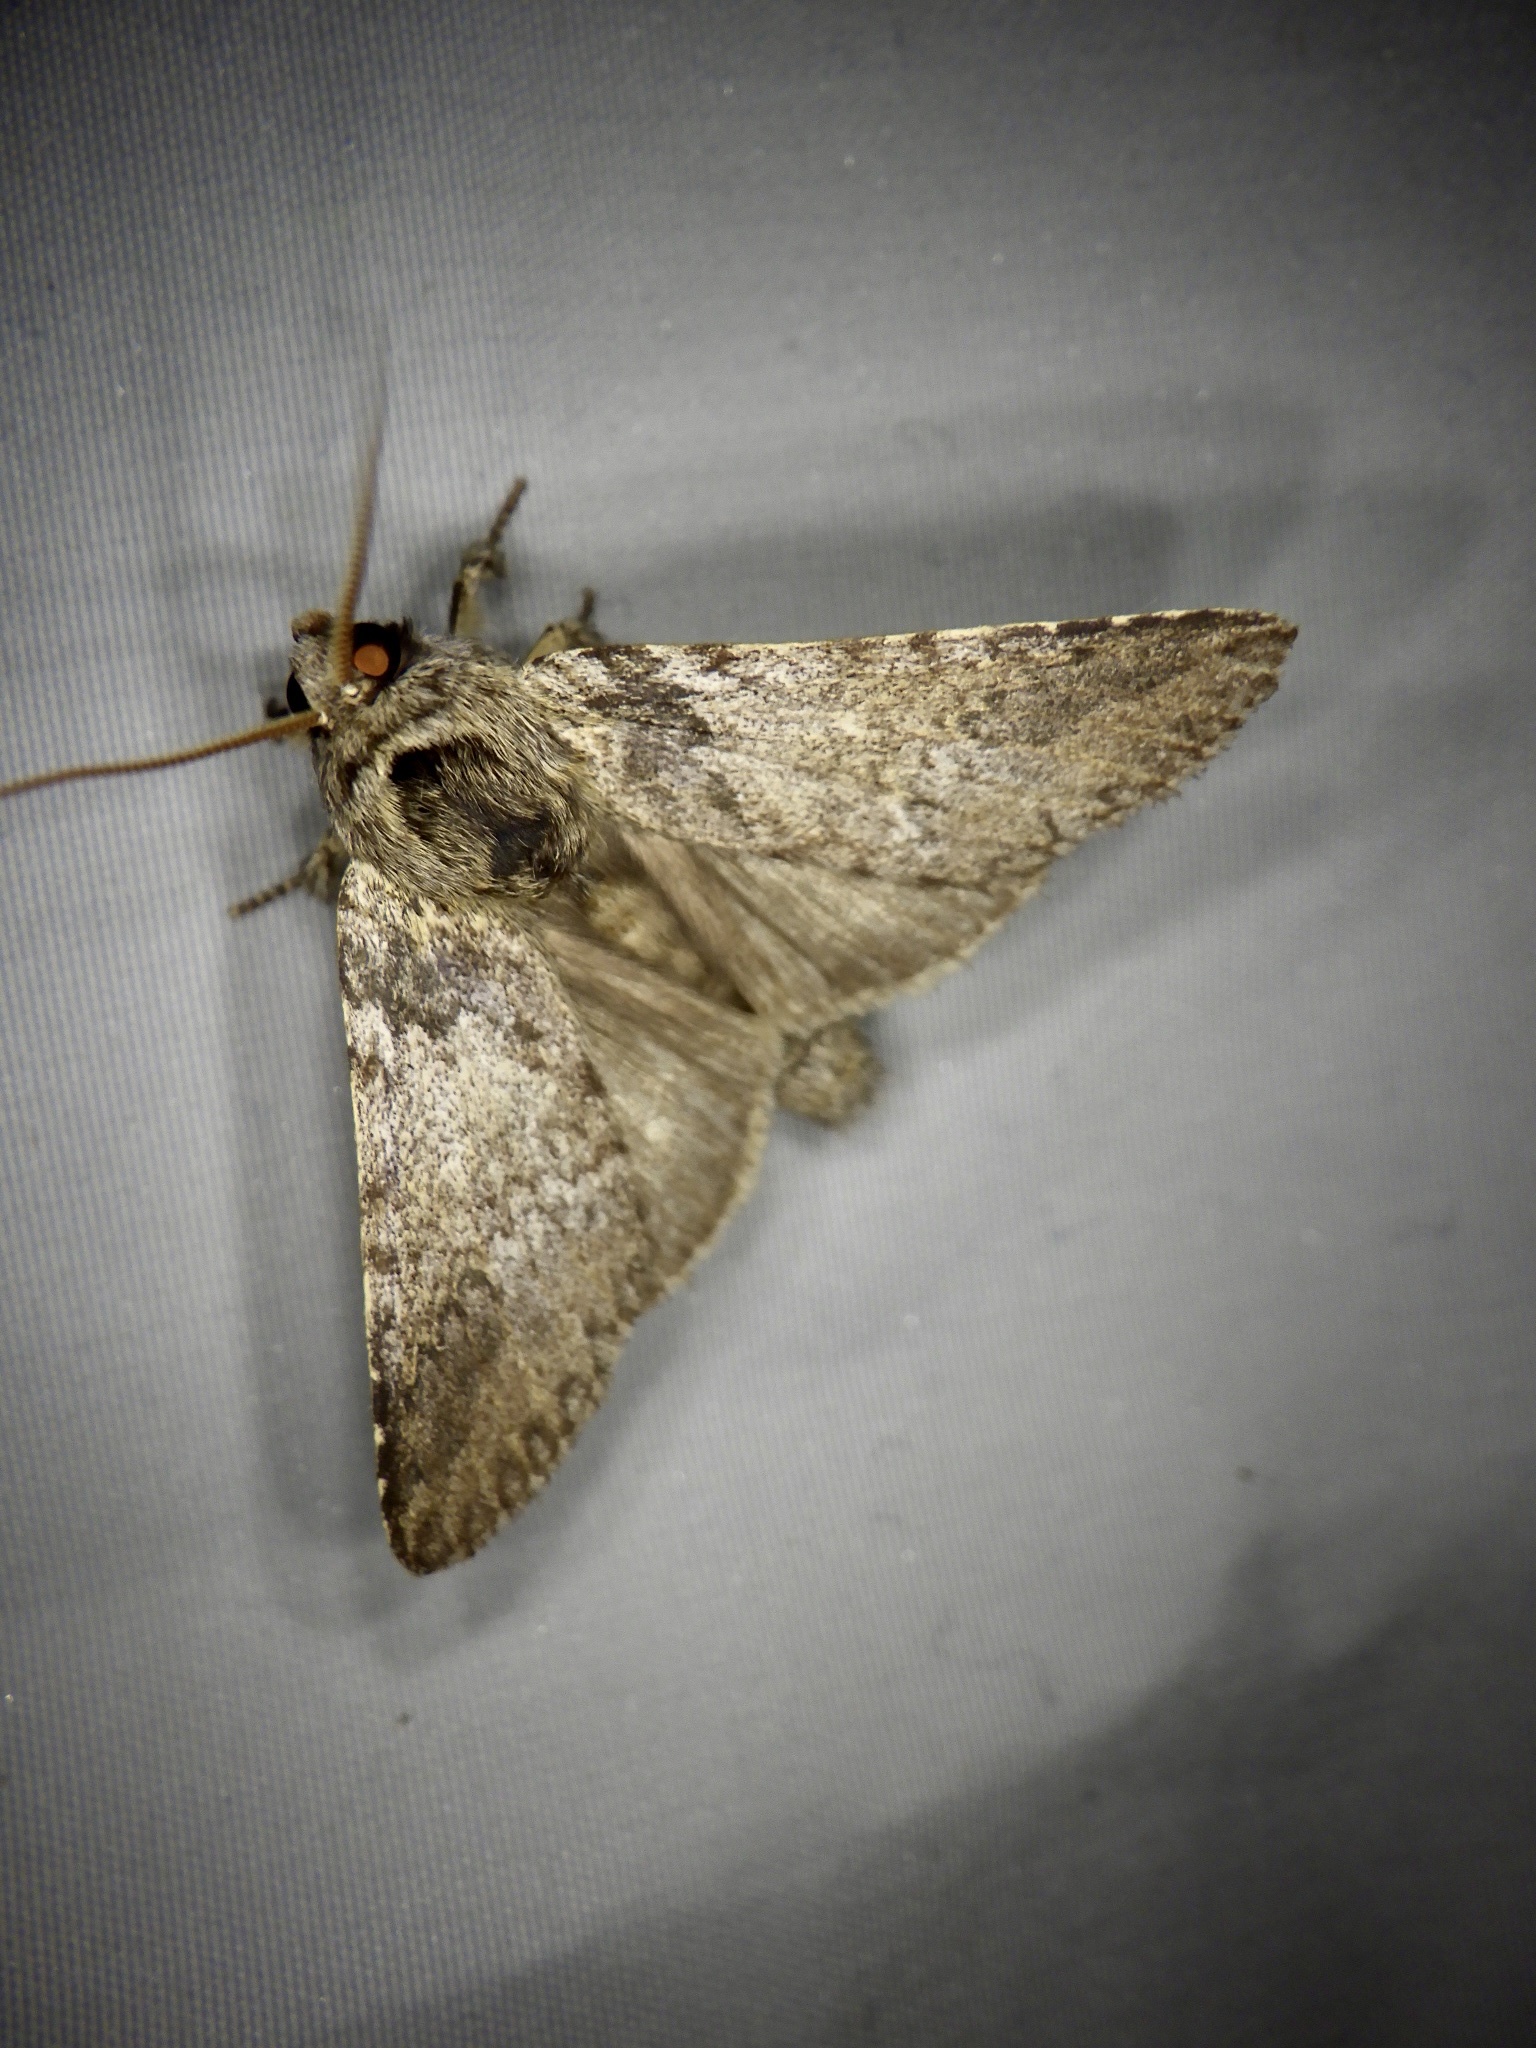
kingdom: Animalia
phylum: Arthropoda
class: Insecta
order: Lepidoptera
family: Notodontidae
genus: Disparia
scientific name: Disparia diluta
